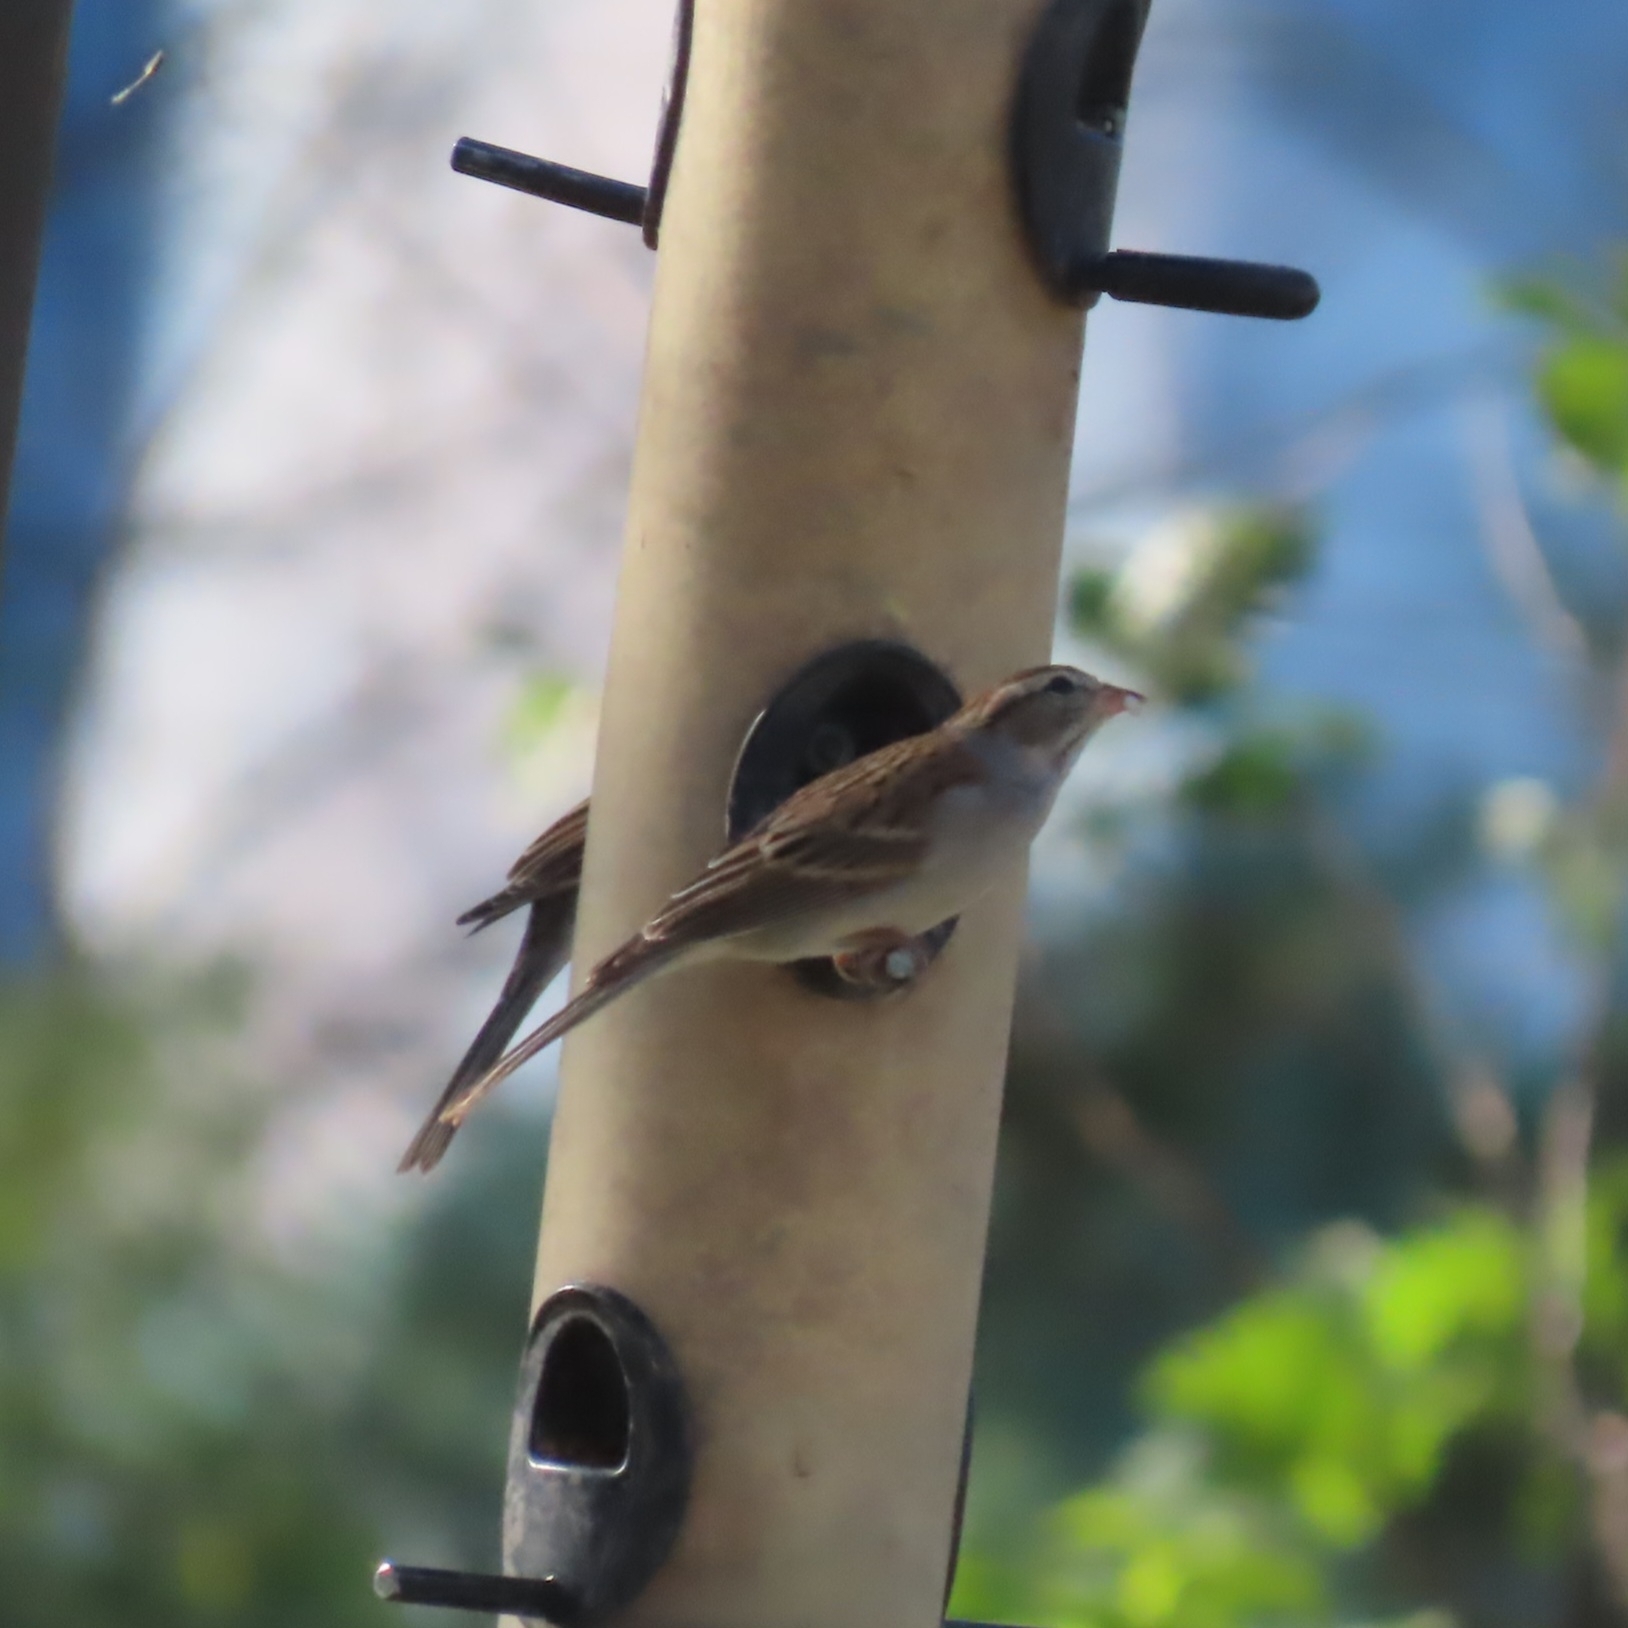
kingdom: Animalia
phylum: Chordata
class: Aves
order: Passeriformes
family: Passerellidae
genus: Spizella
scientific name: Spizella passerina
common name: Chipping sparrow
